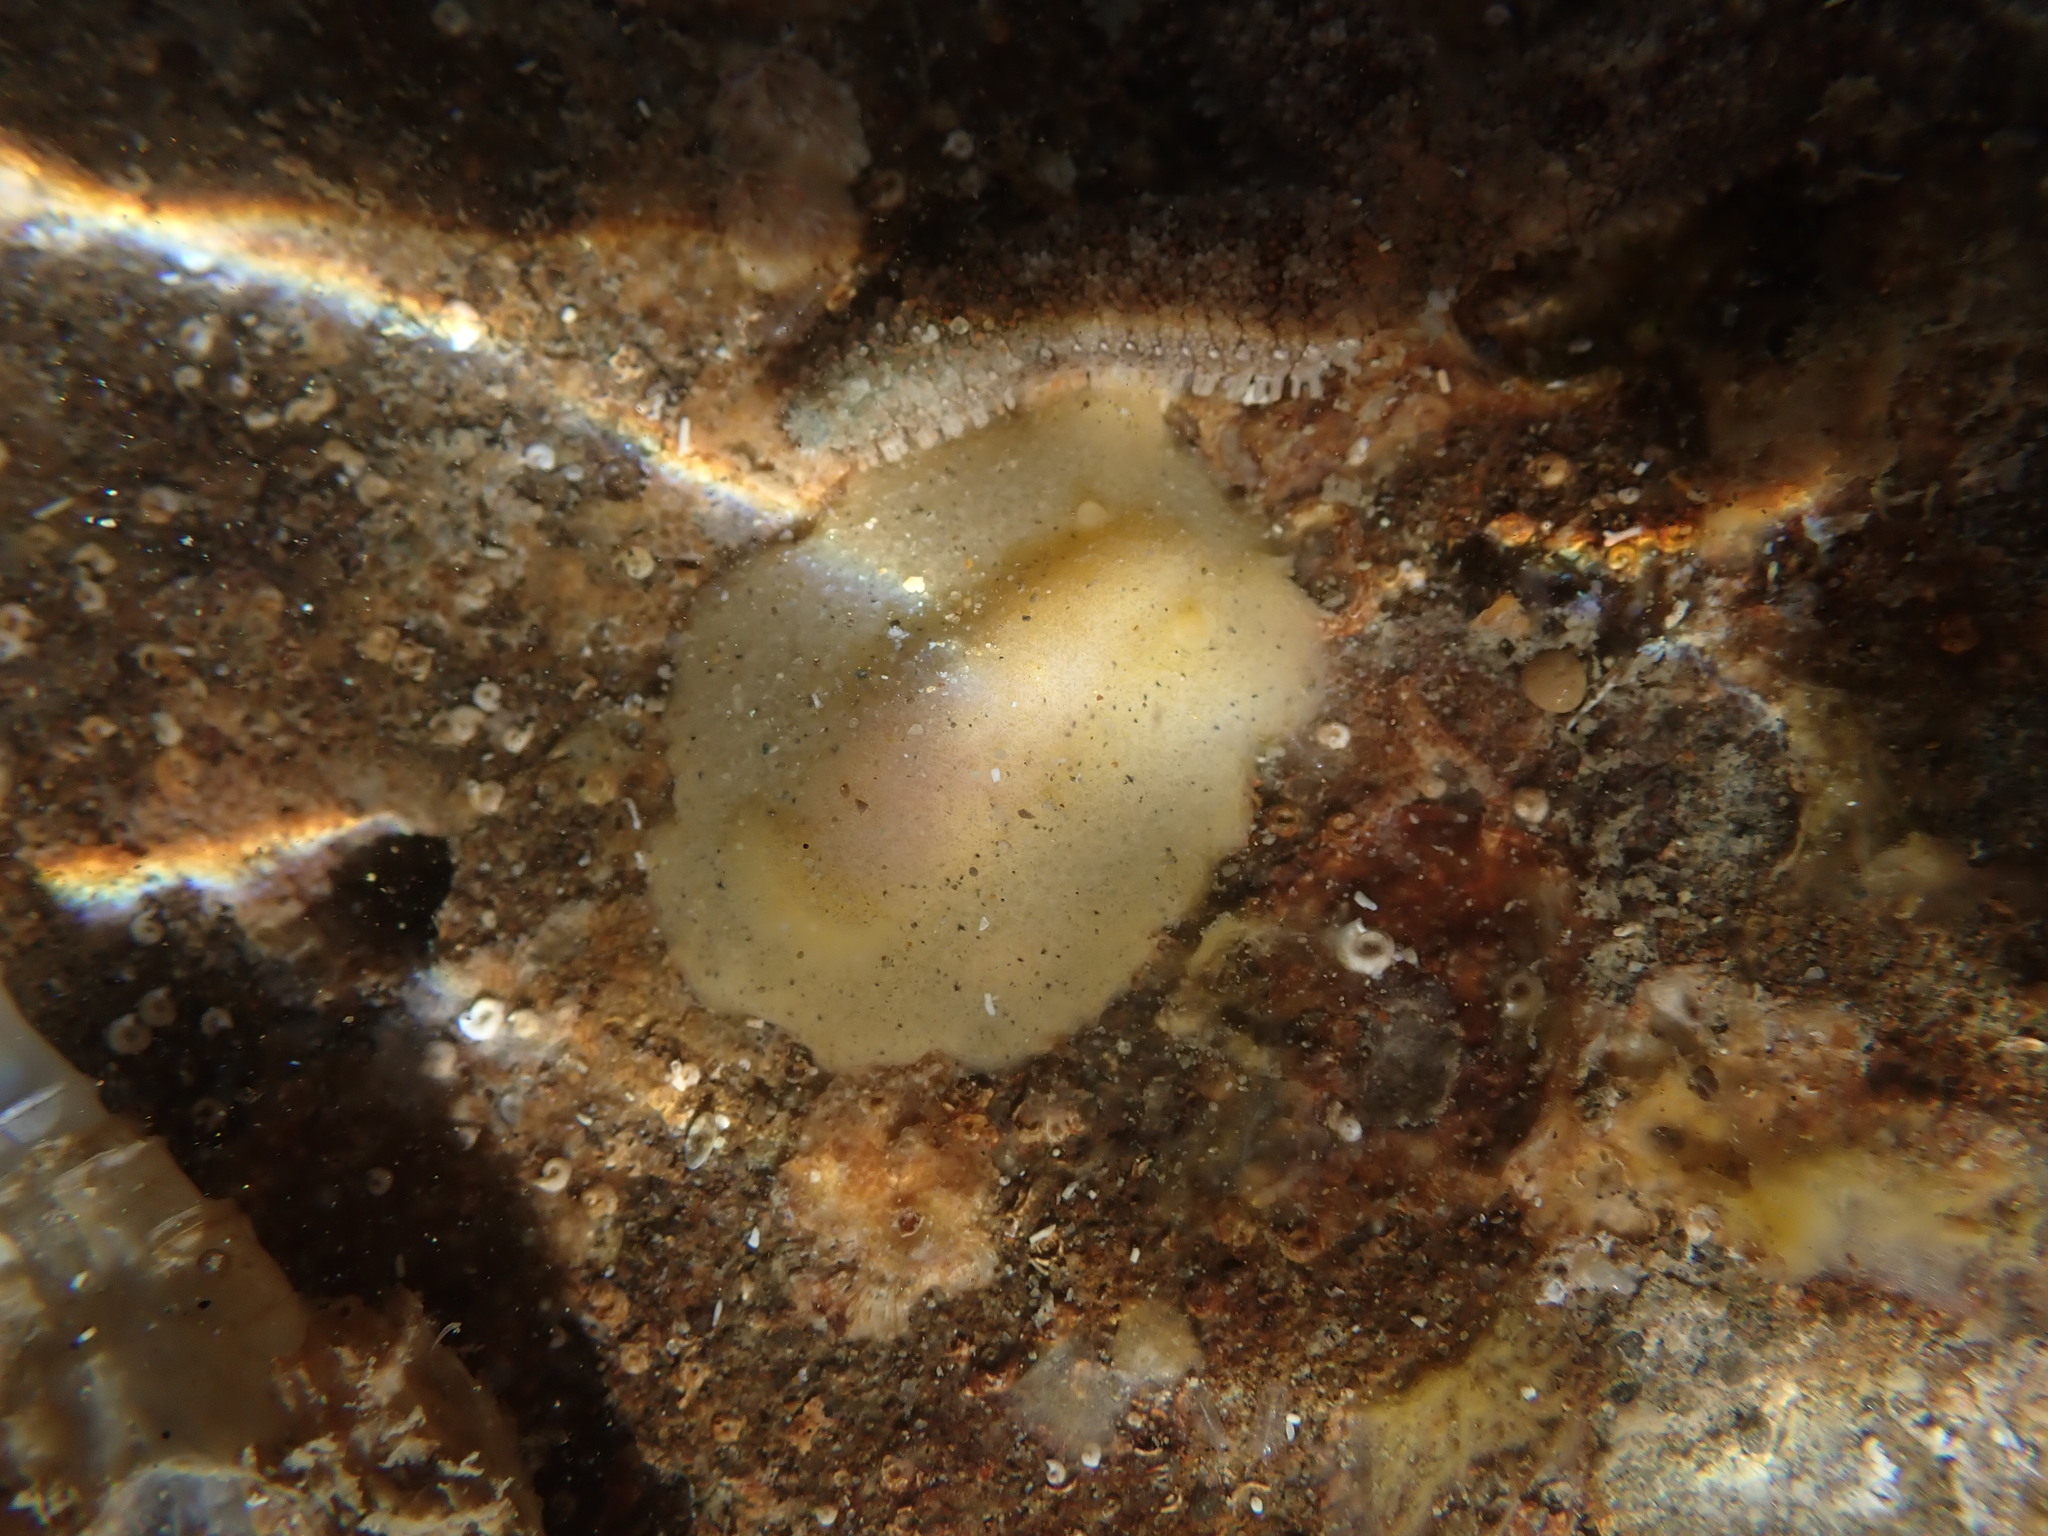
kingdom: Animalia
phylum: Mollusca
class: Gastropoda
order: Nudibranchia
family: Dorididae
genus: Doriopsis
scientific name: Doriopsis granulosa
